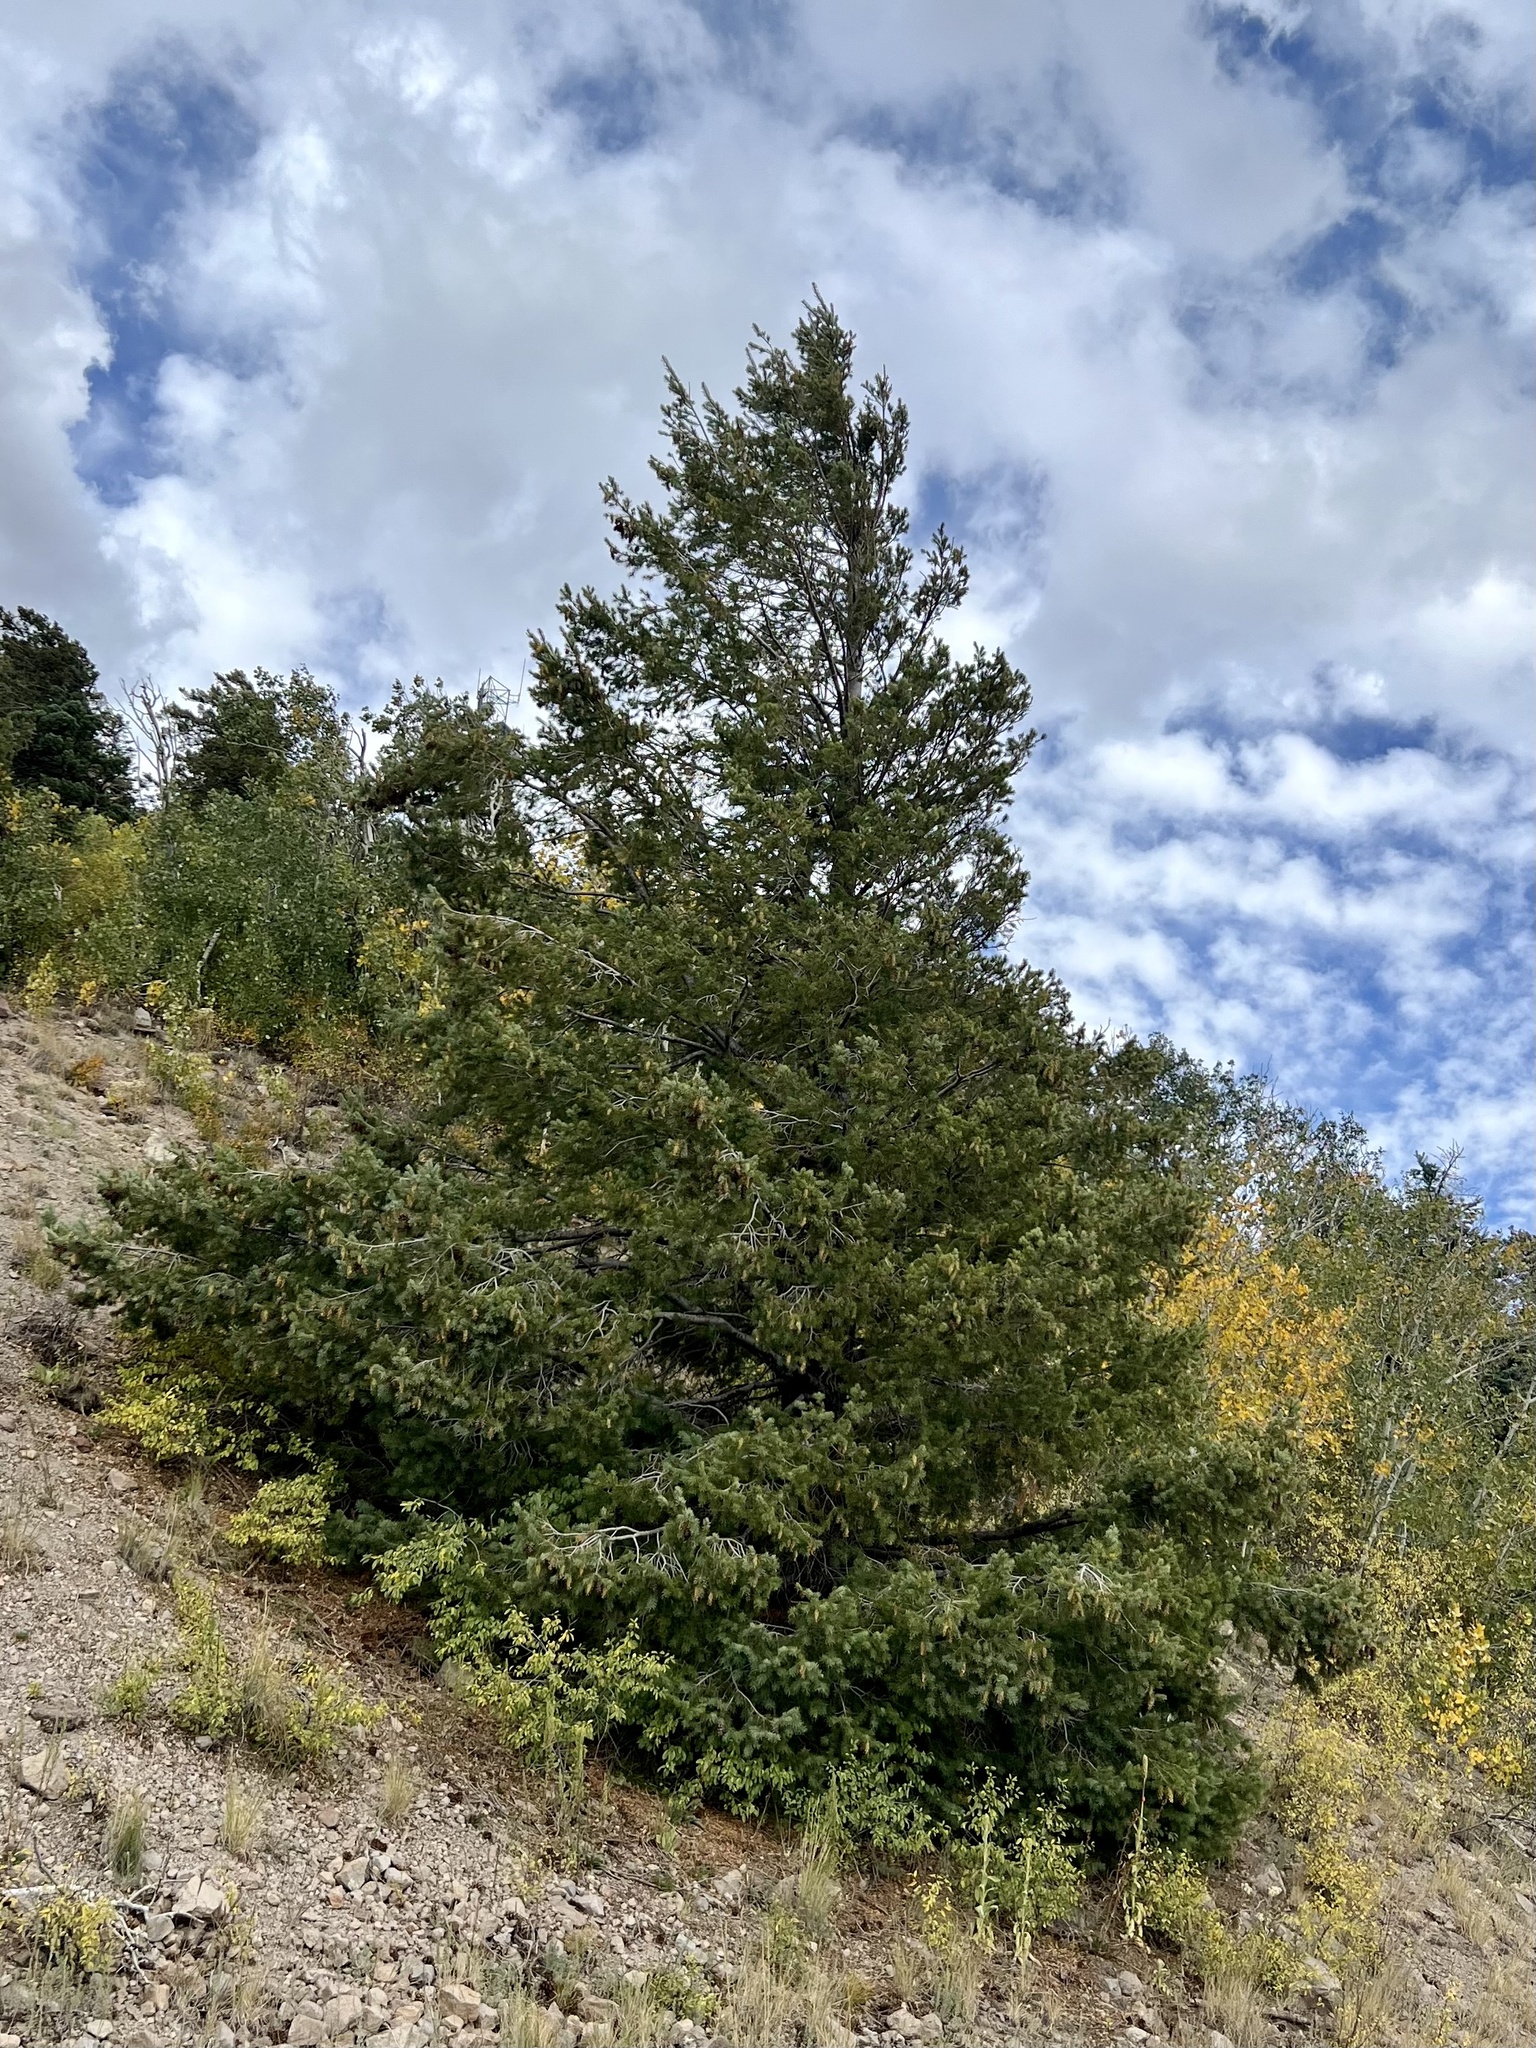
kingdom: Plantae
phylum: Tracheophyta
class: Pinopsida
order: Pinales
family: Pinaceae
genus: Pseudotsuga
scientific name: Pseudotsuga menziesii
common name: Douglas fir
